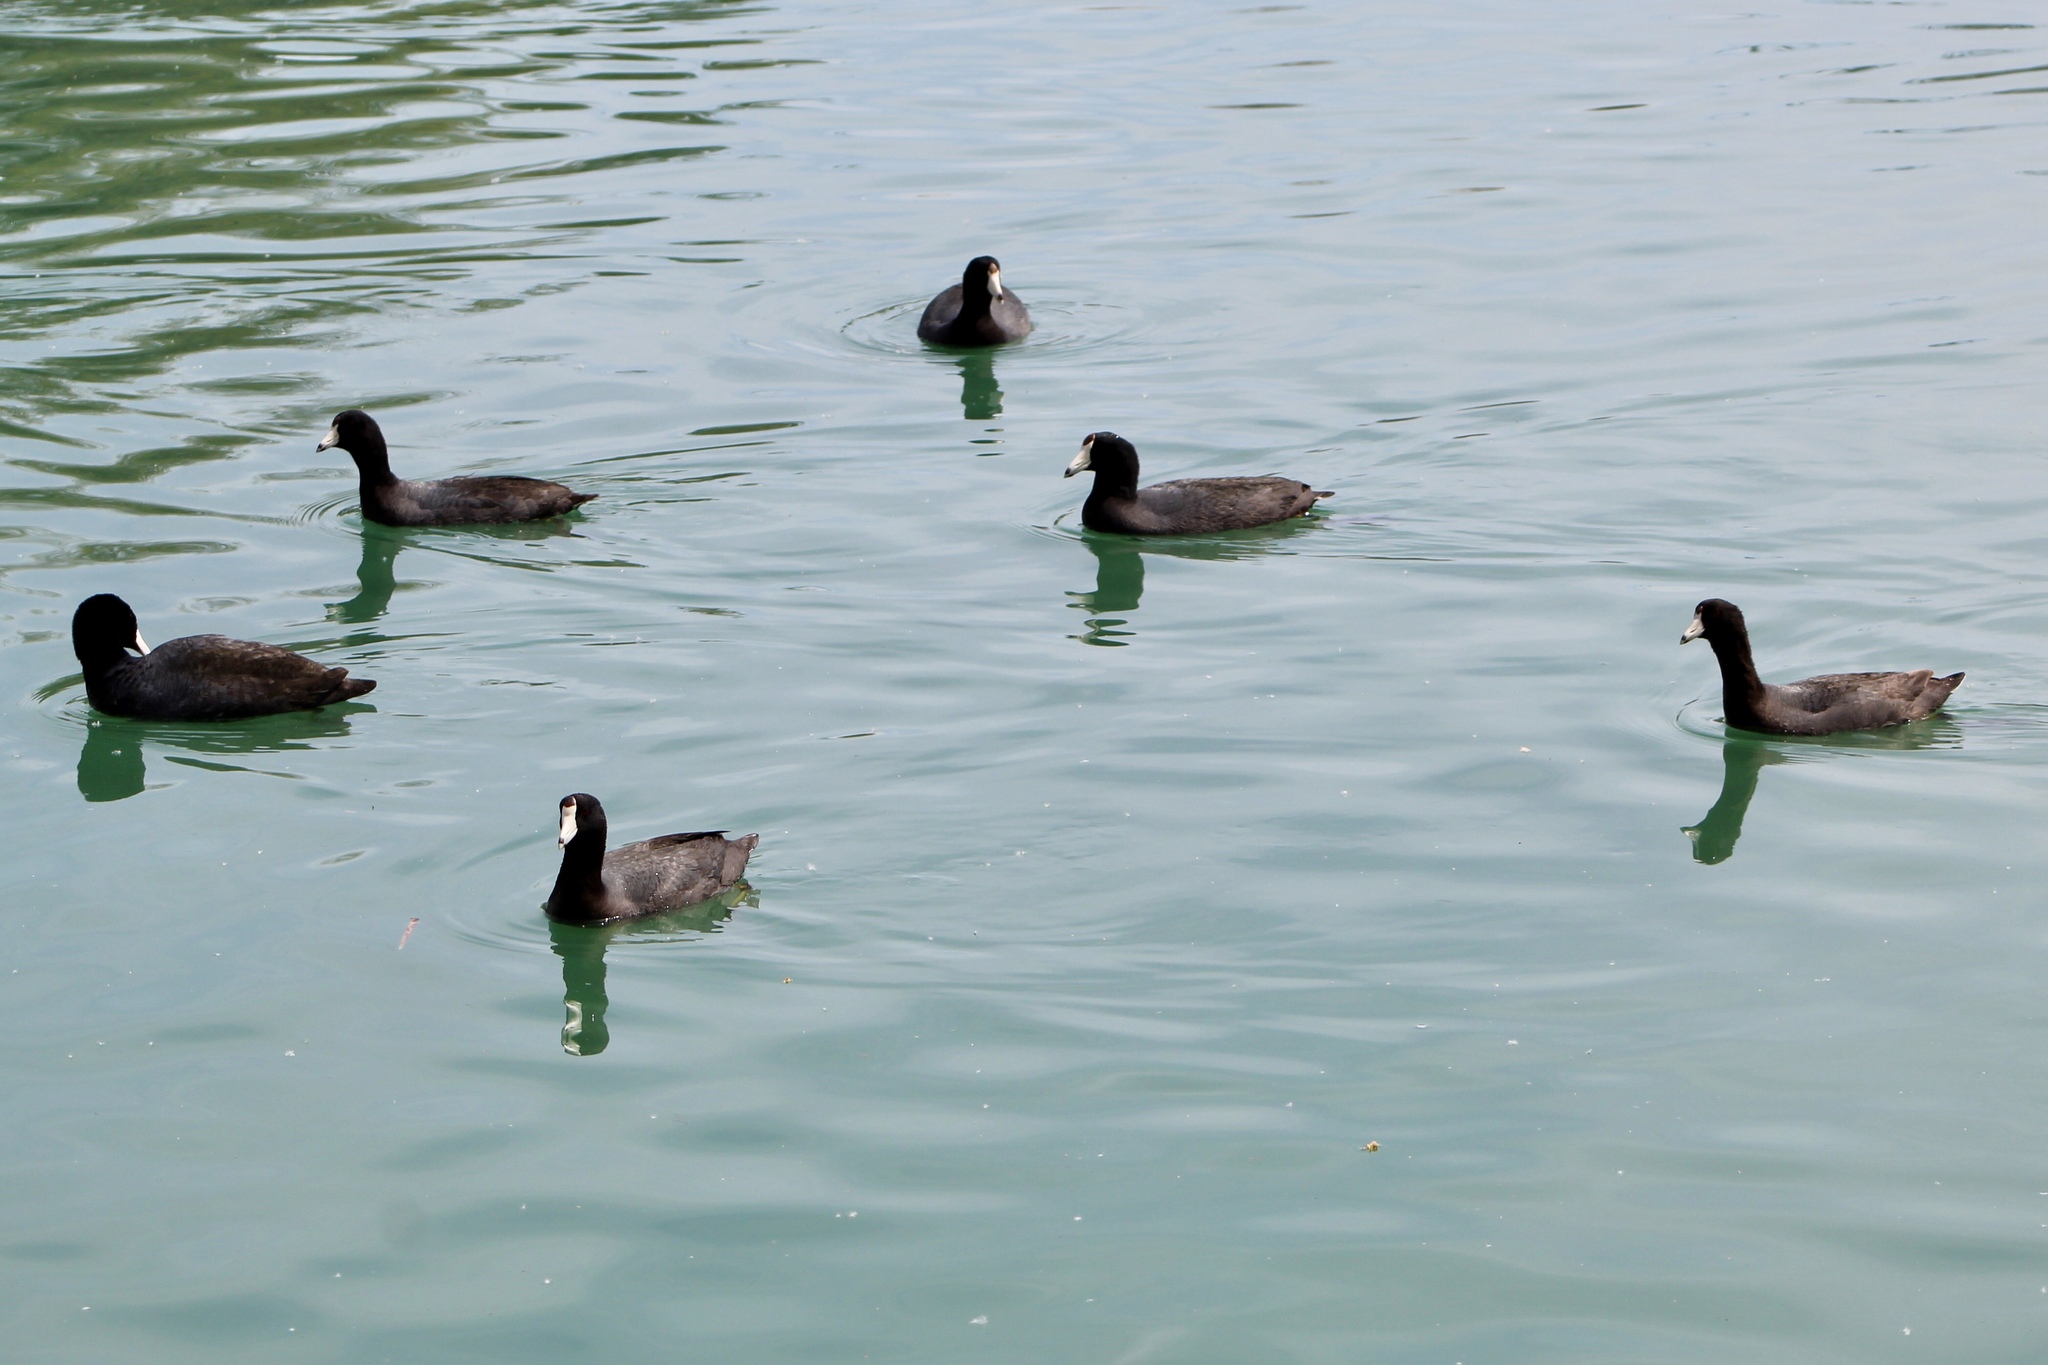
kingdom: Animalia
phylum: Chordata
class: Aves
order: Gruiformes
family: Rallidae
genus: Fulica
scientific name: Fulica americana
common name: American coot
